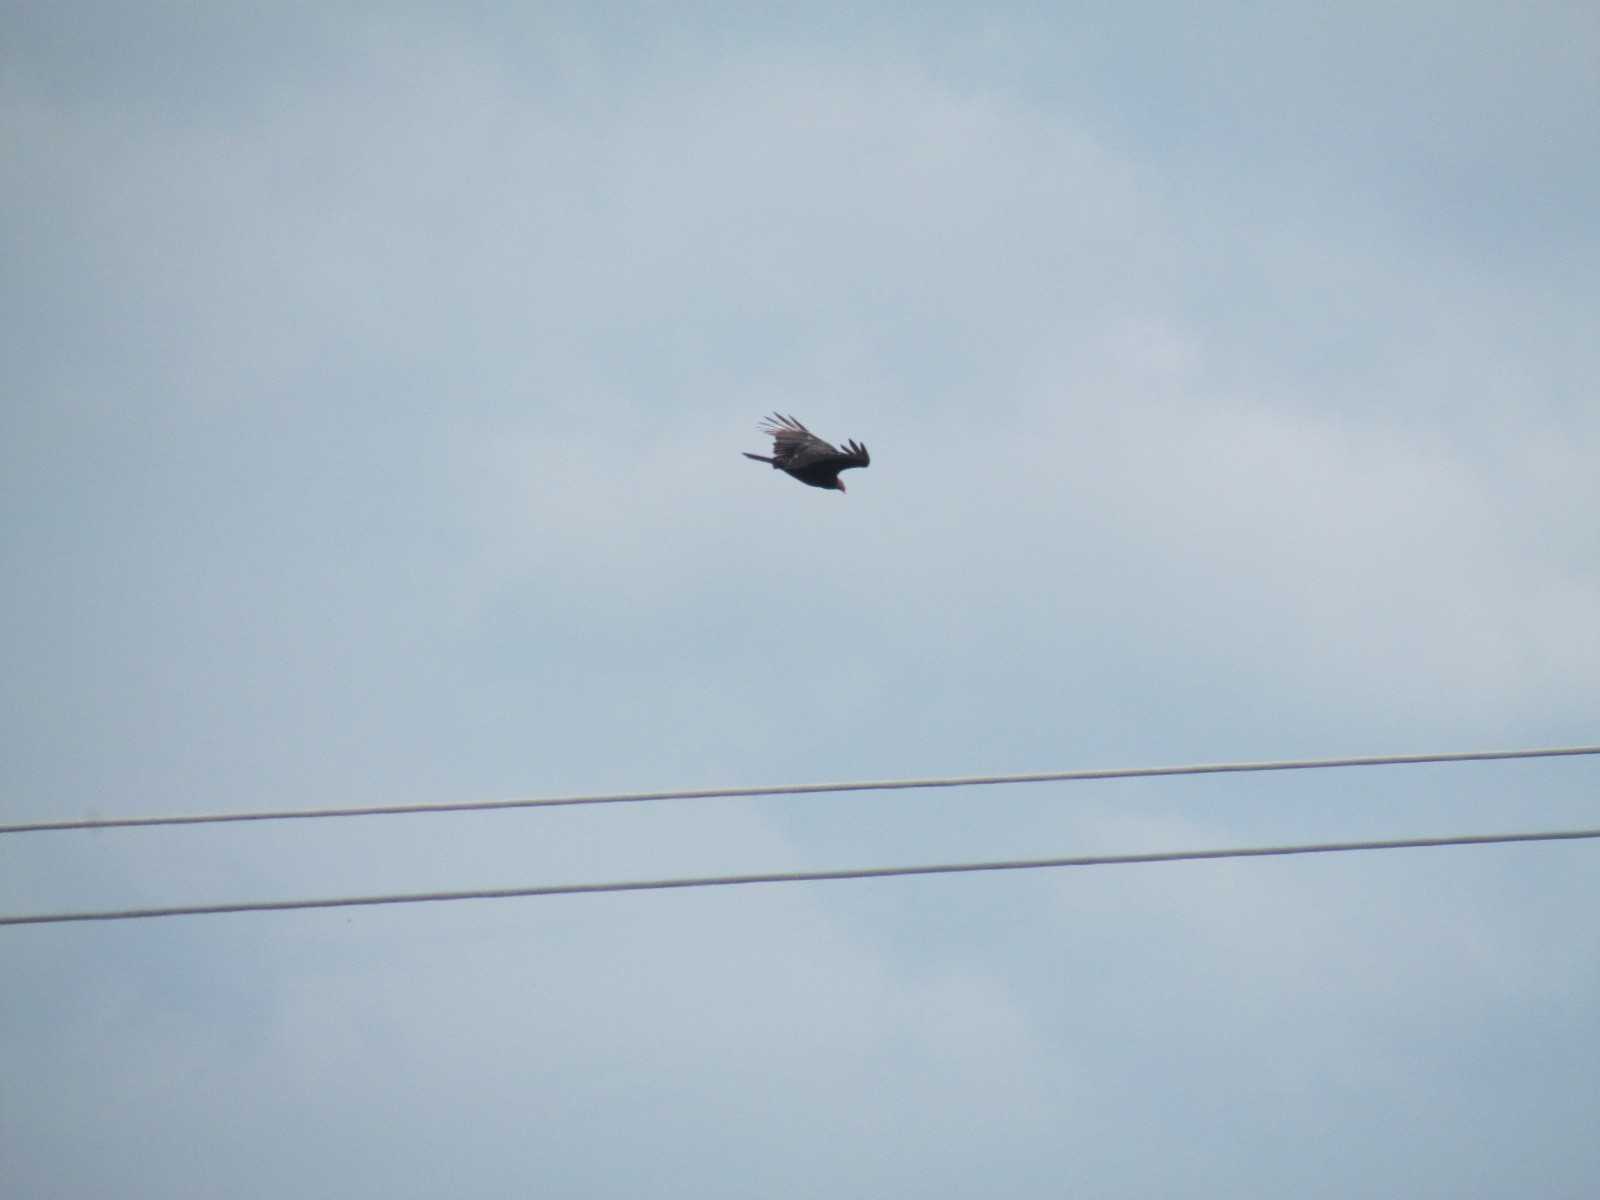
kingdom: Animalia
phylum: Chordata
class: Aves
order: Accipitriformes
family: Cathartidae
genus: Cathartes
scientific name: Cathartes aura
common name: Turkey vulture
